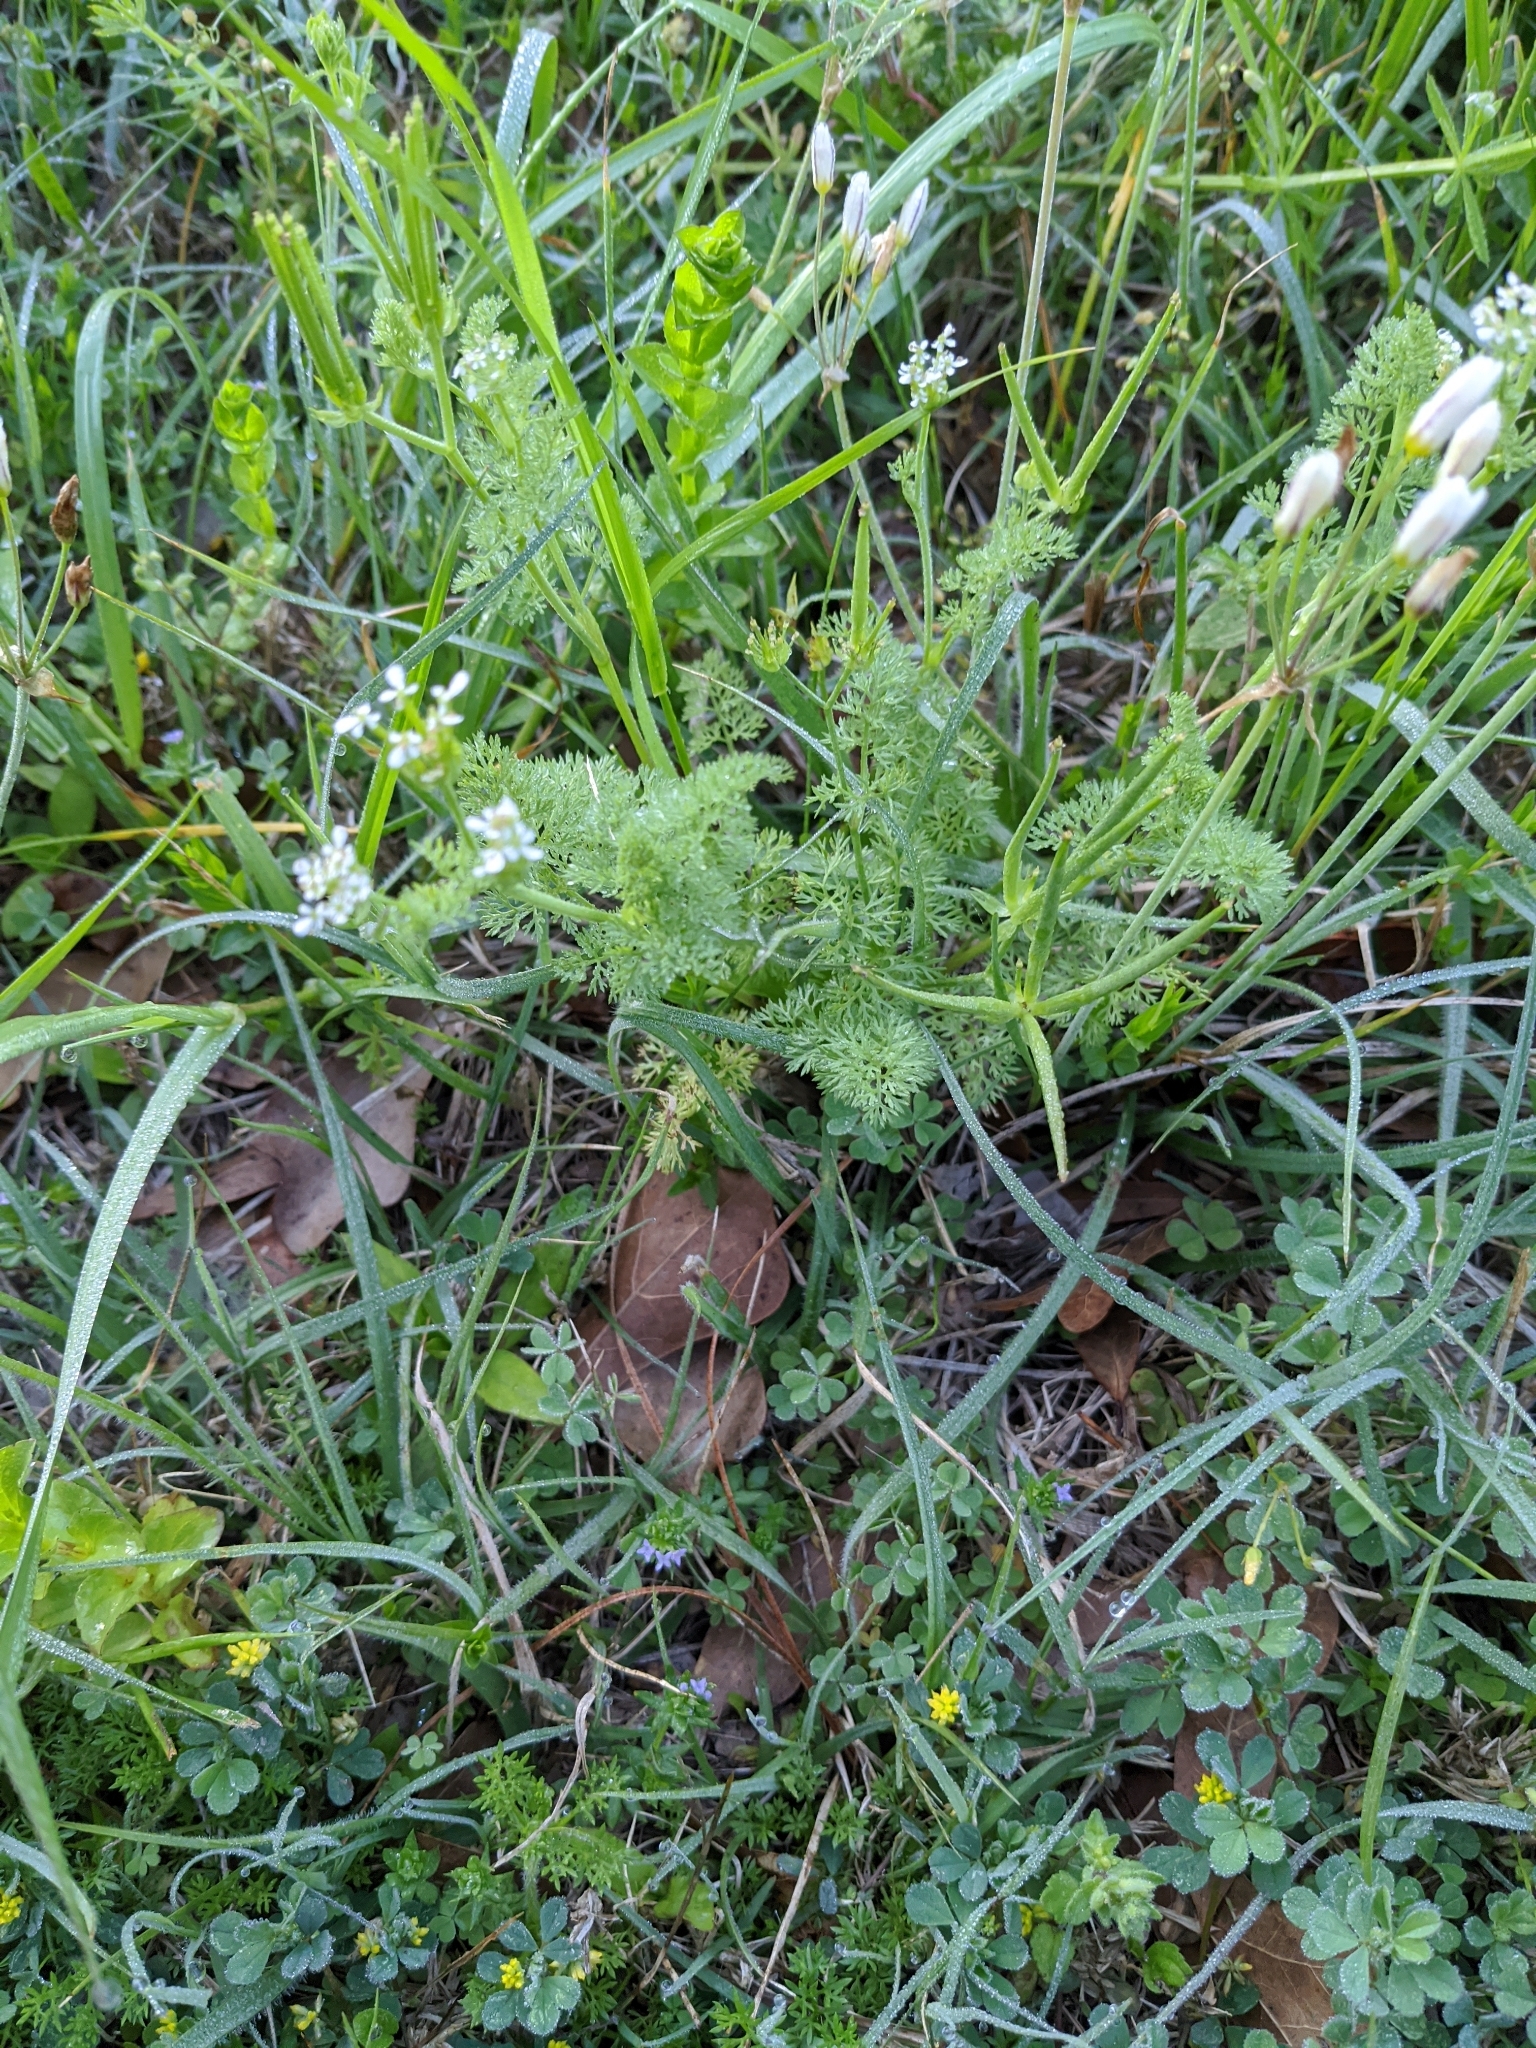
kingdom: Plantae
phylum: Tracheophyta
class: Magnoliopsida
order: Apiales
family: Apiaceae
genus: Scandix
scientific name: Scandix pecten-veneris
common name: Shepherd's-needle
